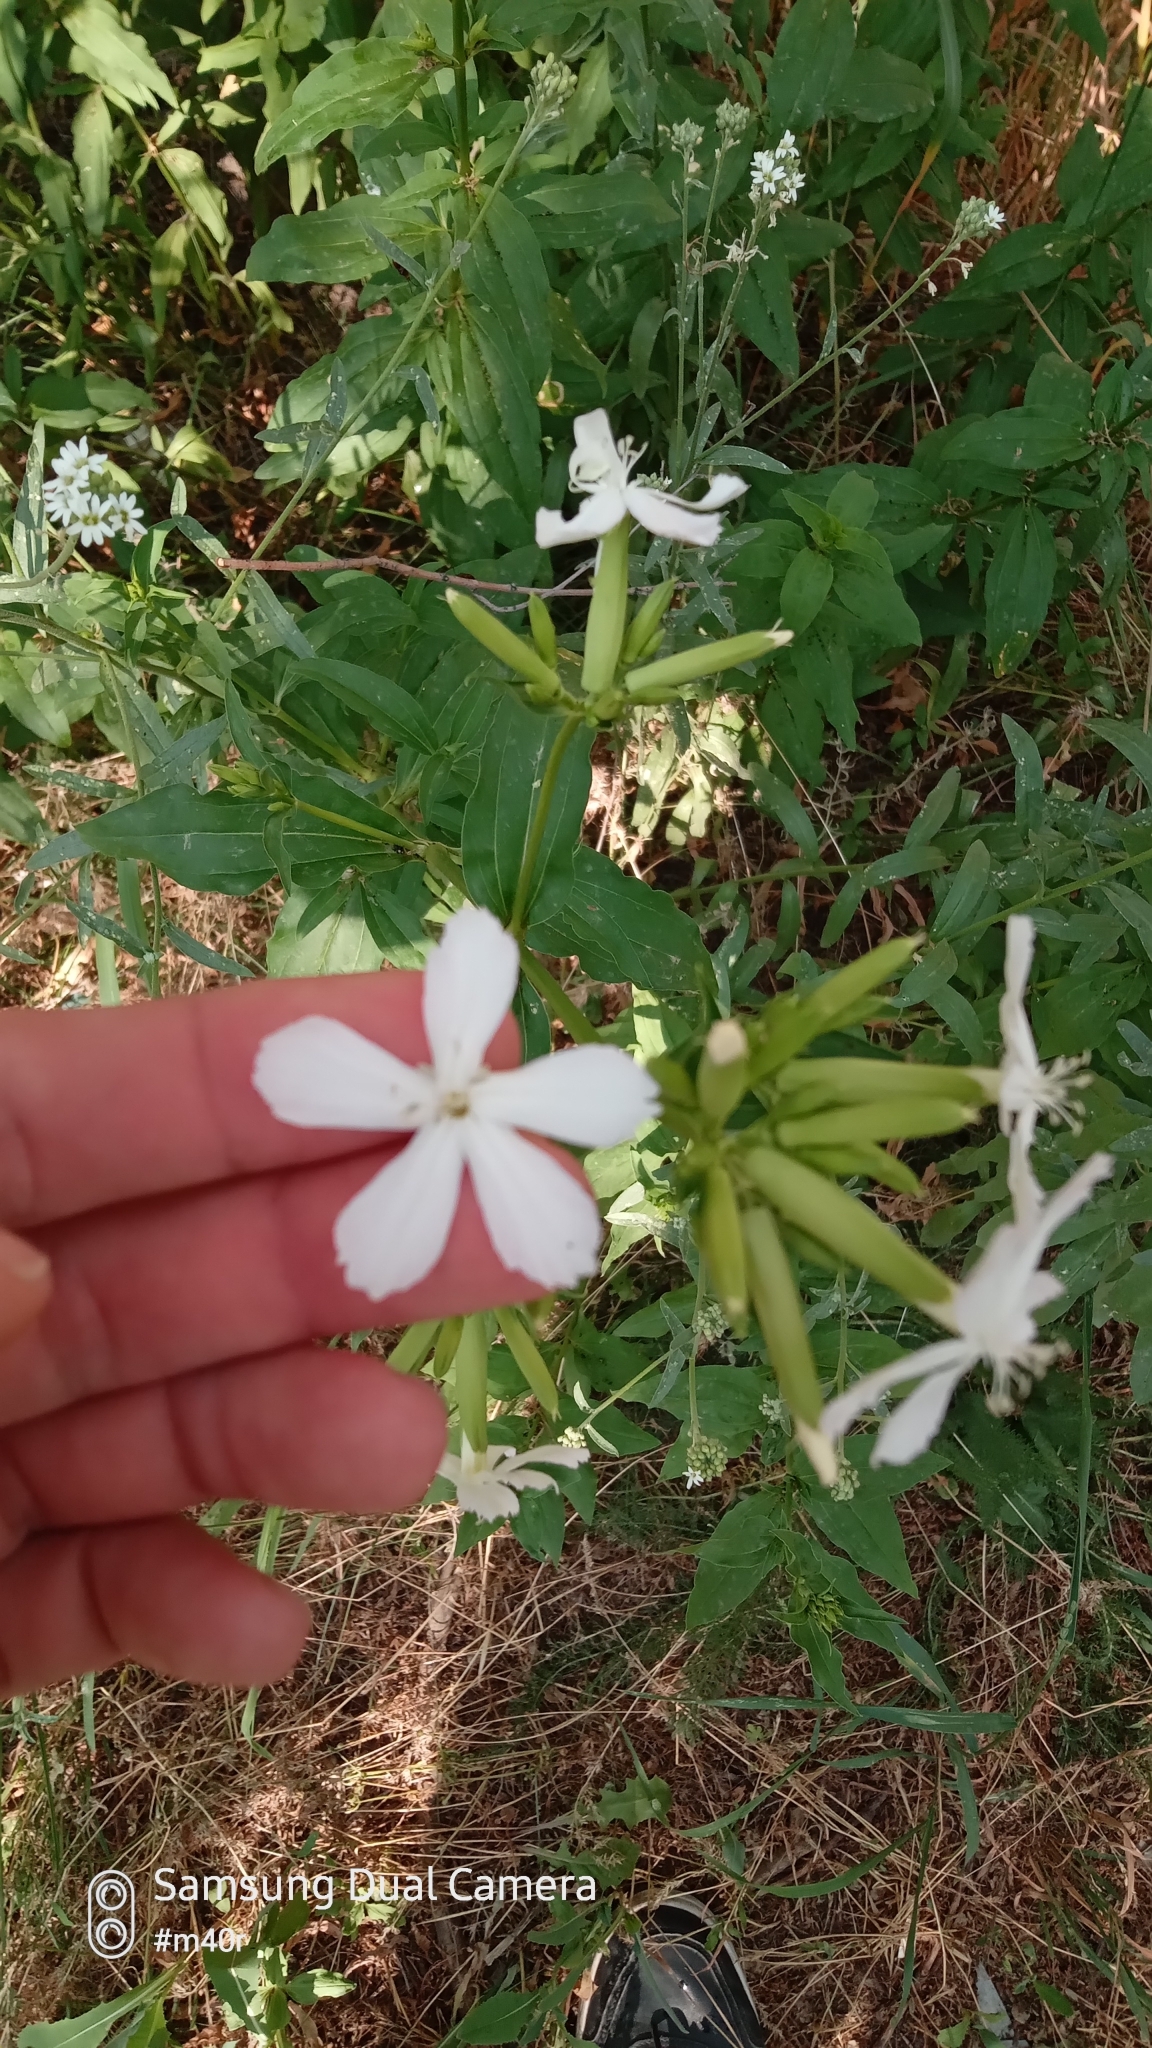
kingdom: Plantae
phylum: Tracheophyta
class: Magnoliopsida
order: Caryophyllales
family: Caryophyllaceae
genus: Saponaria
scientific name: Saponaria officinalis
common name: Soapwort
